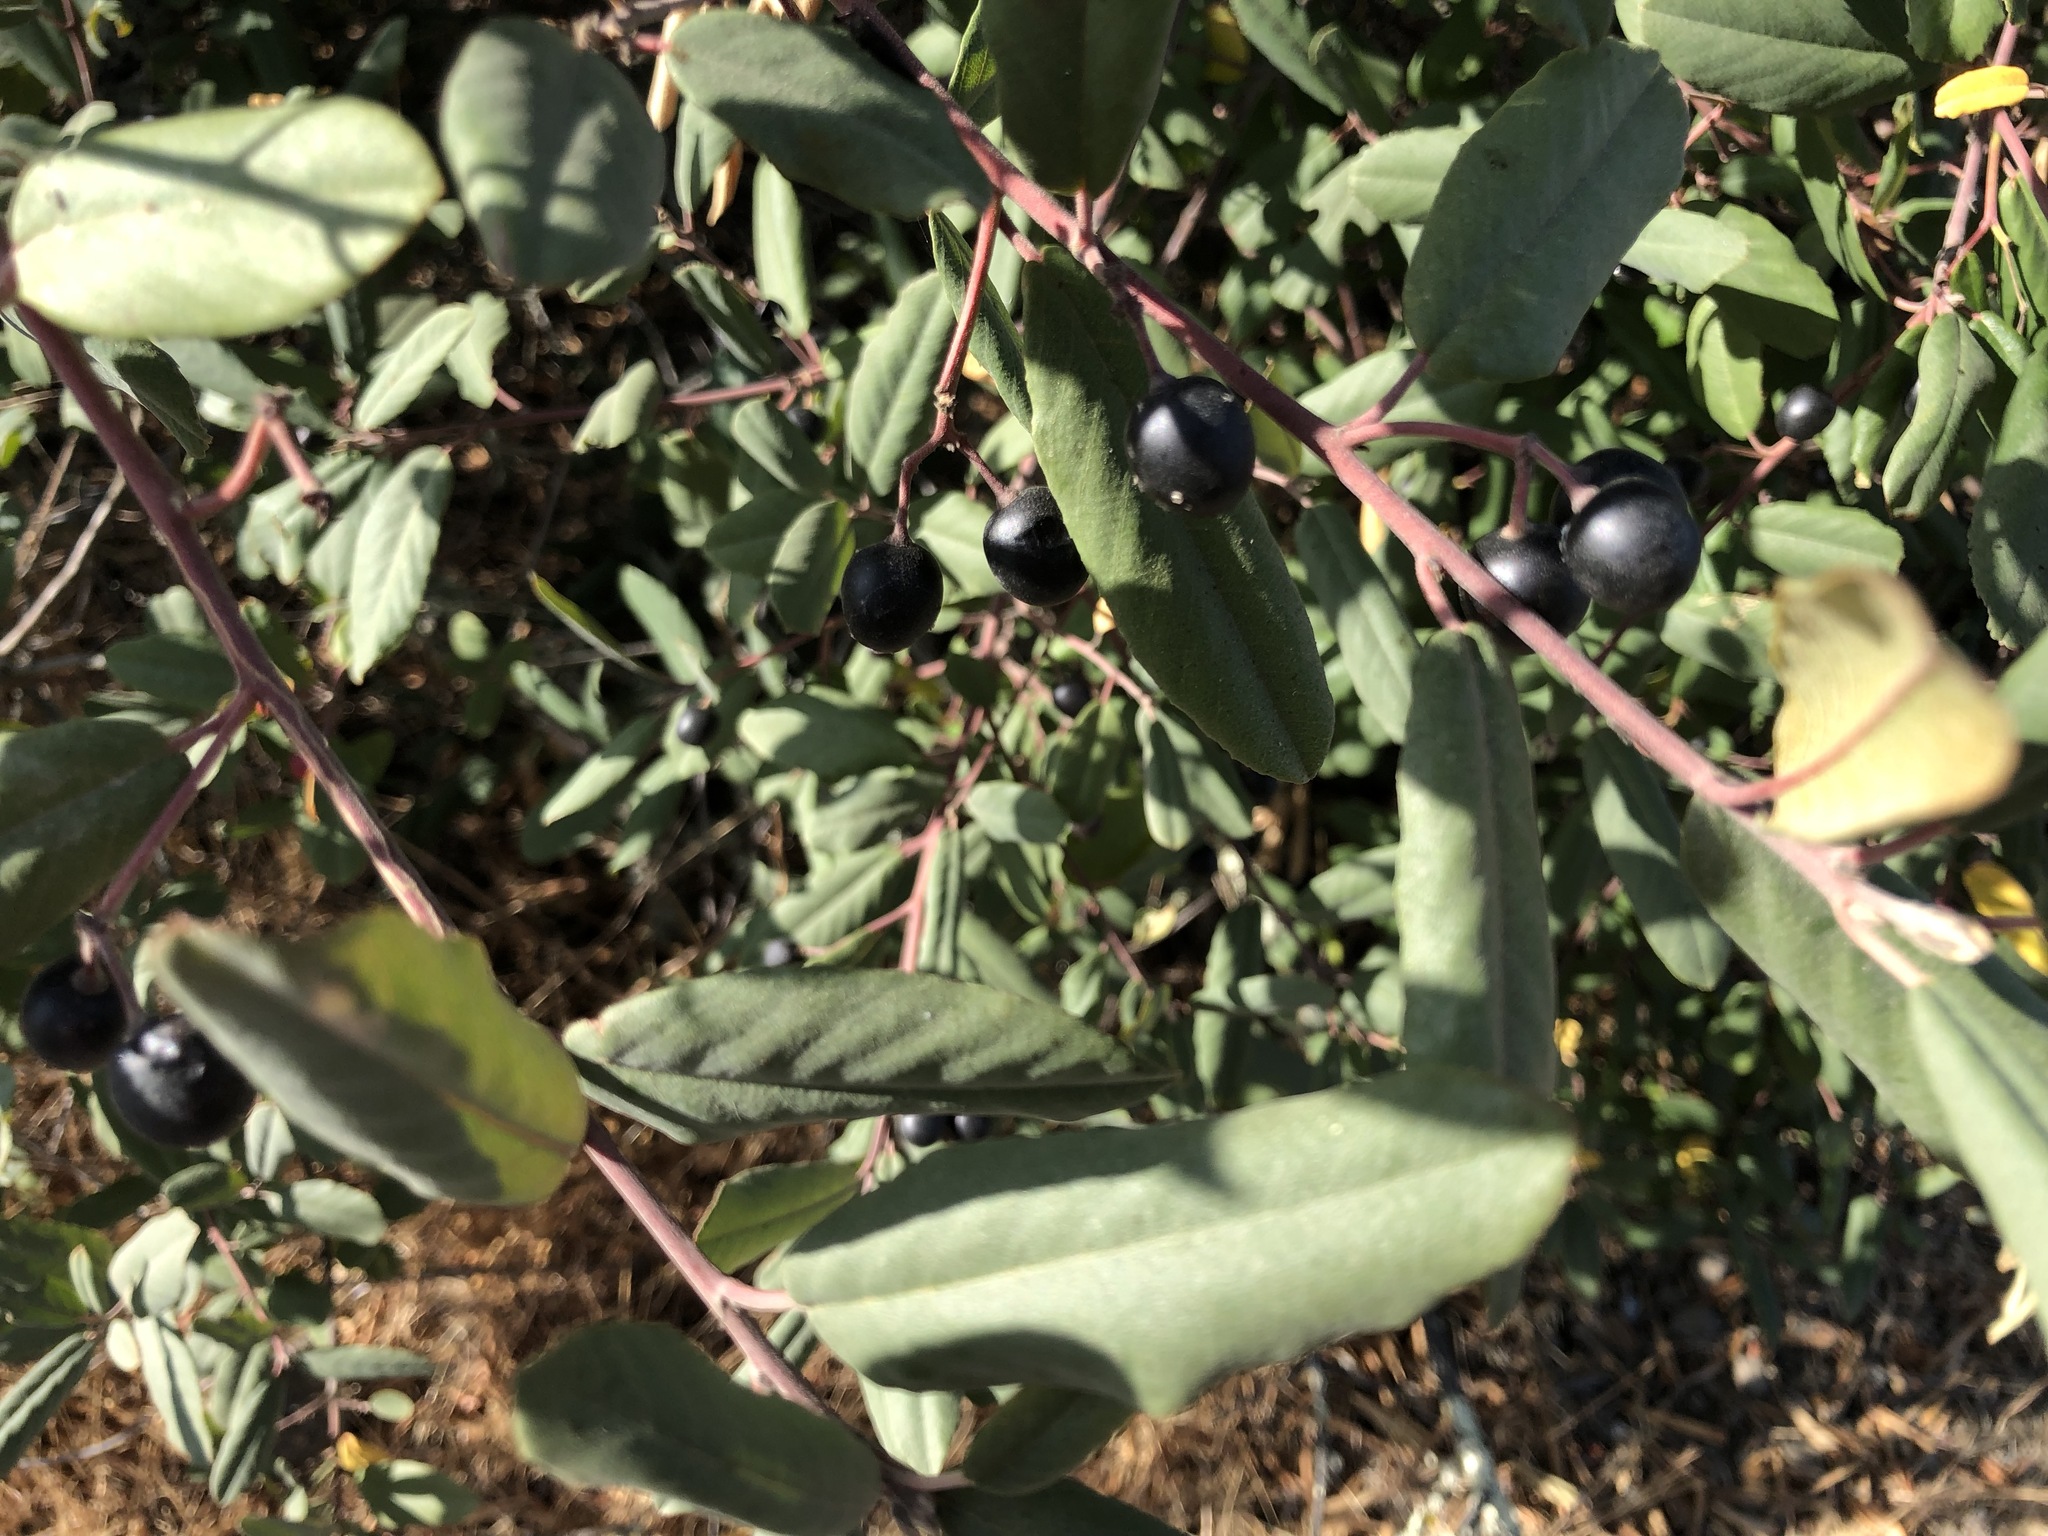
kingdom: Plantae
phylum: Tracheophyta
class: Magnoliopsida
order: Rosales
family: Rhamnaceae
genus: Frangula
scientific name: Frangula californica
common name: California buckthorn
